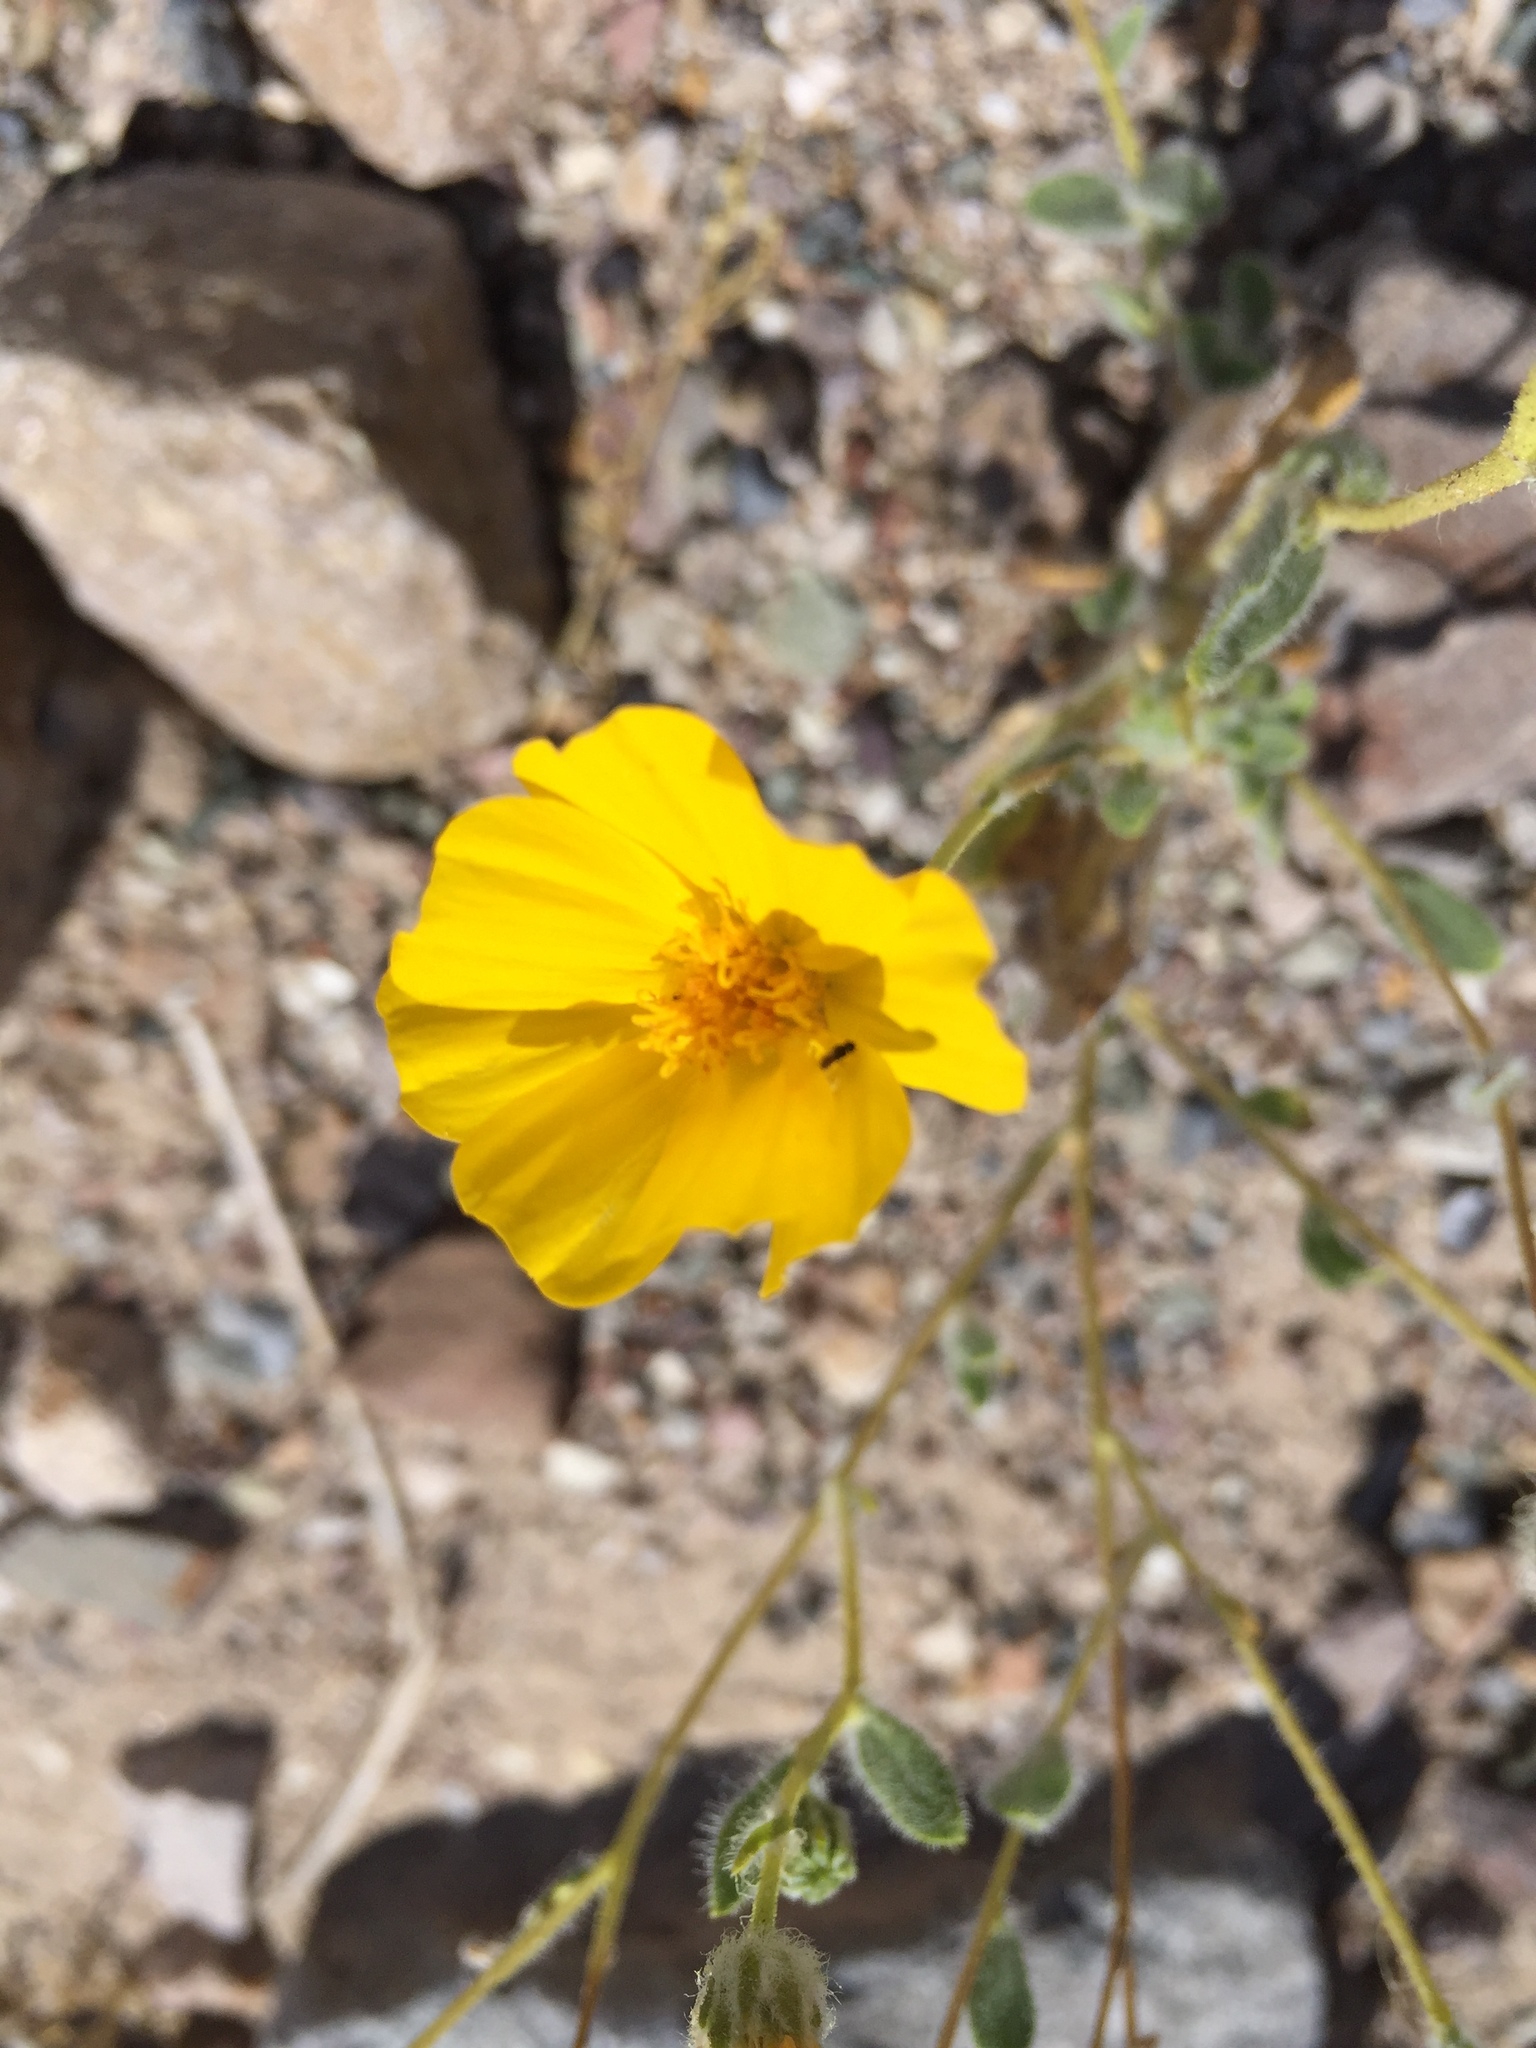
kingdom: Plantae
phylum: Tracheophyta
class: Magnoliopsida
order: Asterales
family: Asteraceae
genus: Geraea
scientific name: Geraea canescens
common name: Desert-gold
